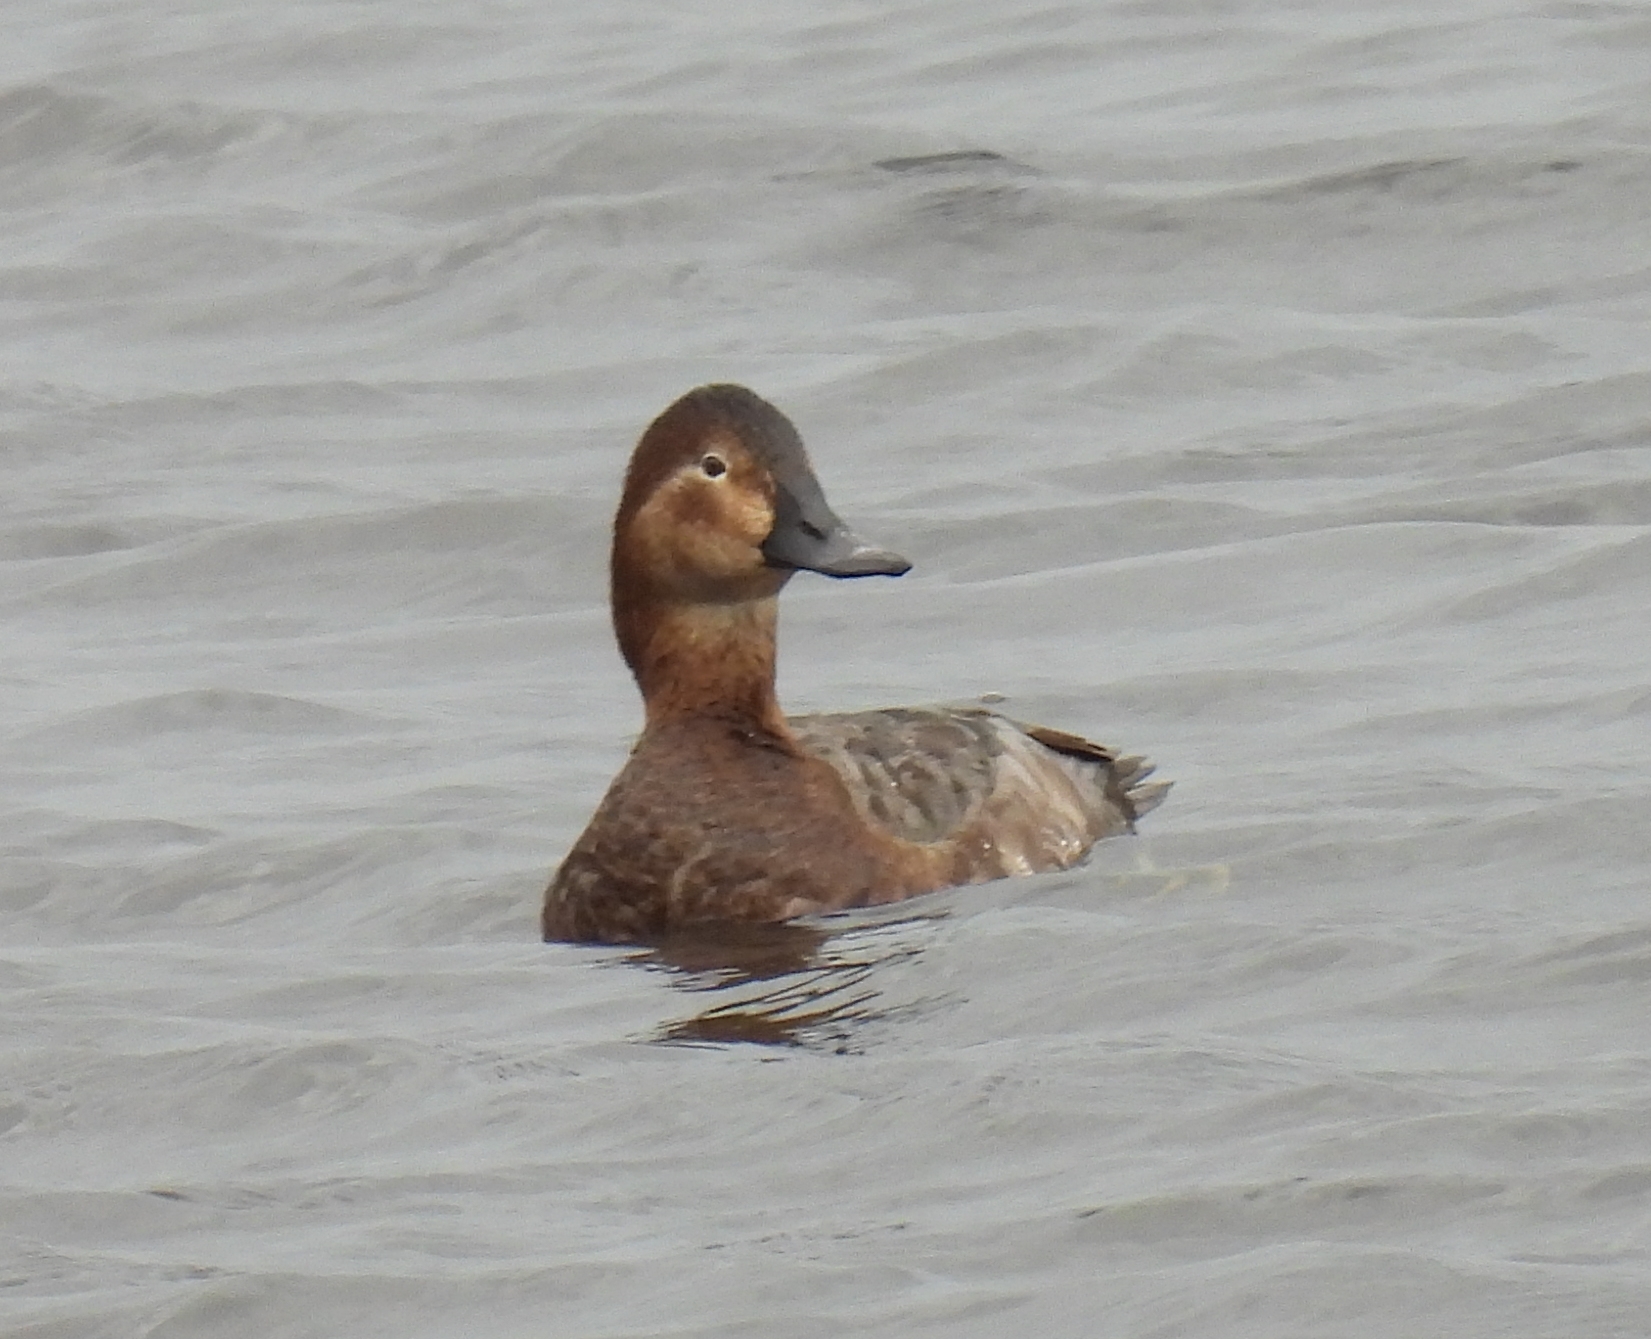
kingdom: Animalia
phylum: Chordata
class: Aves
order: Anseriformes
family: Anatidae
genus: Aythya
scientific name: Aythya ferina
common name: Common pochard
